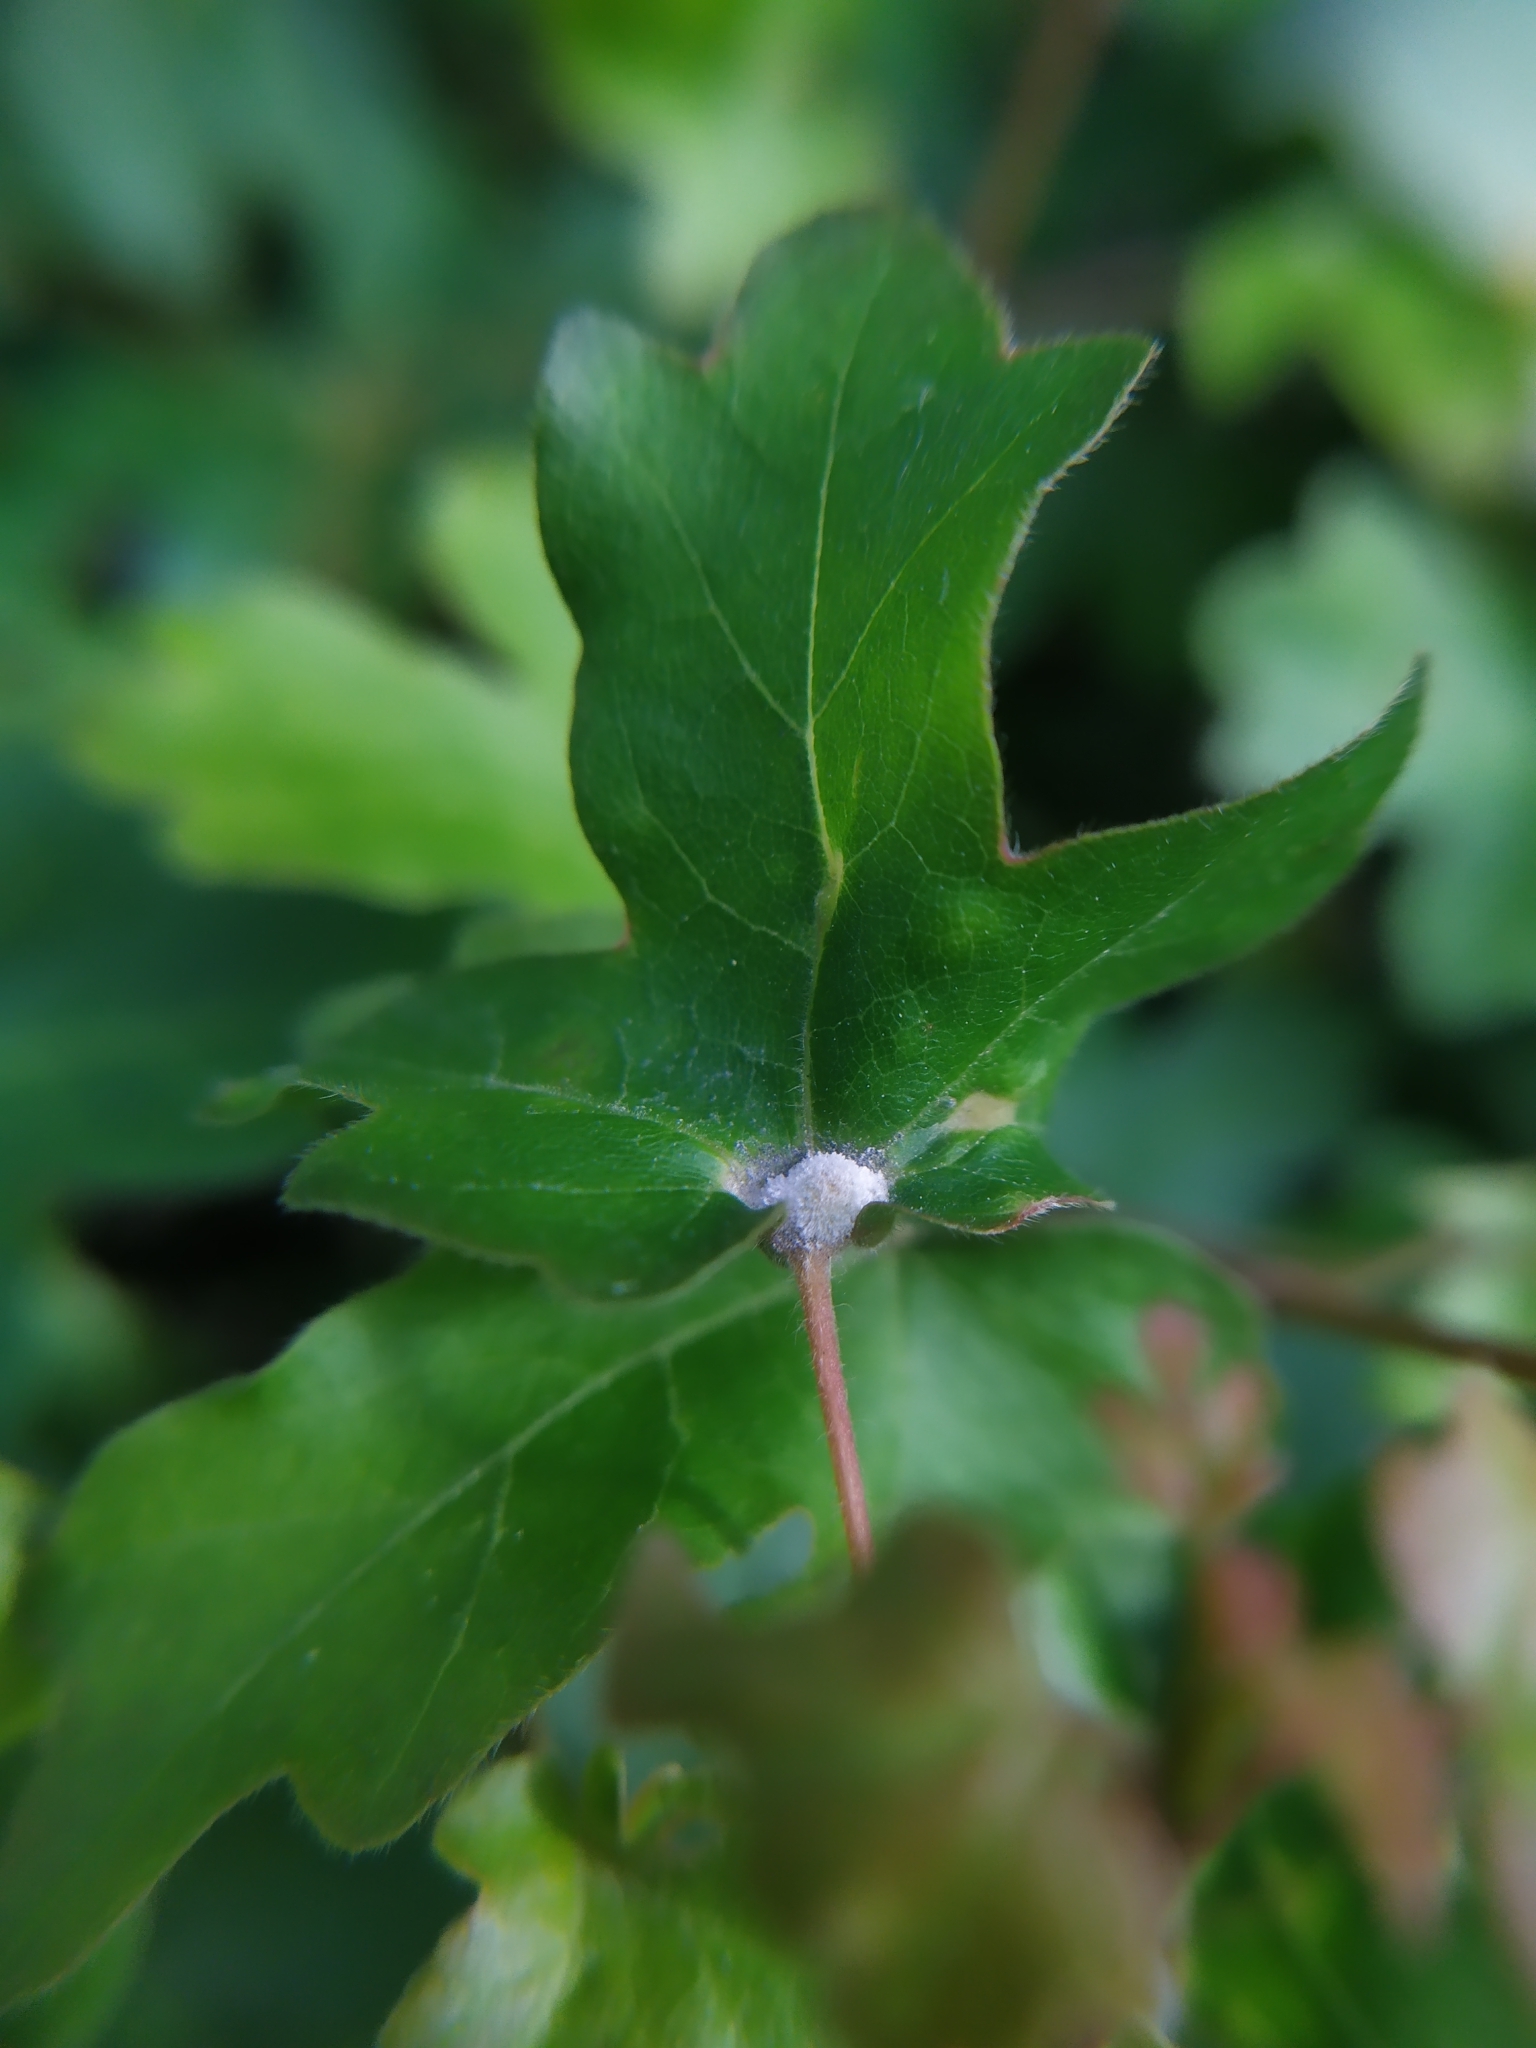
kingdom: Animalia
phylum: Arthropoda
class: Arachnida
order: Trombidiformes
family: Eriophyidae
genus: Aceria
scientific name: Aceria macrochelus
